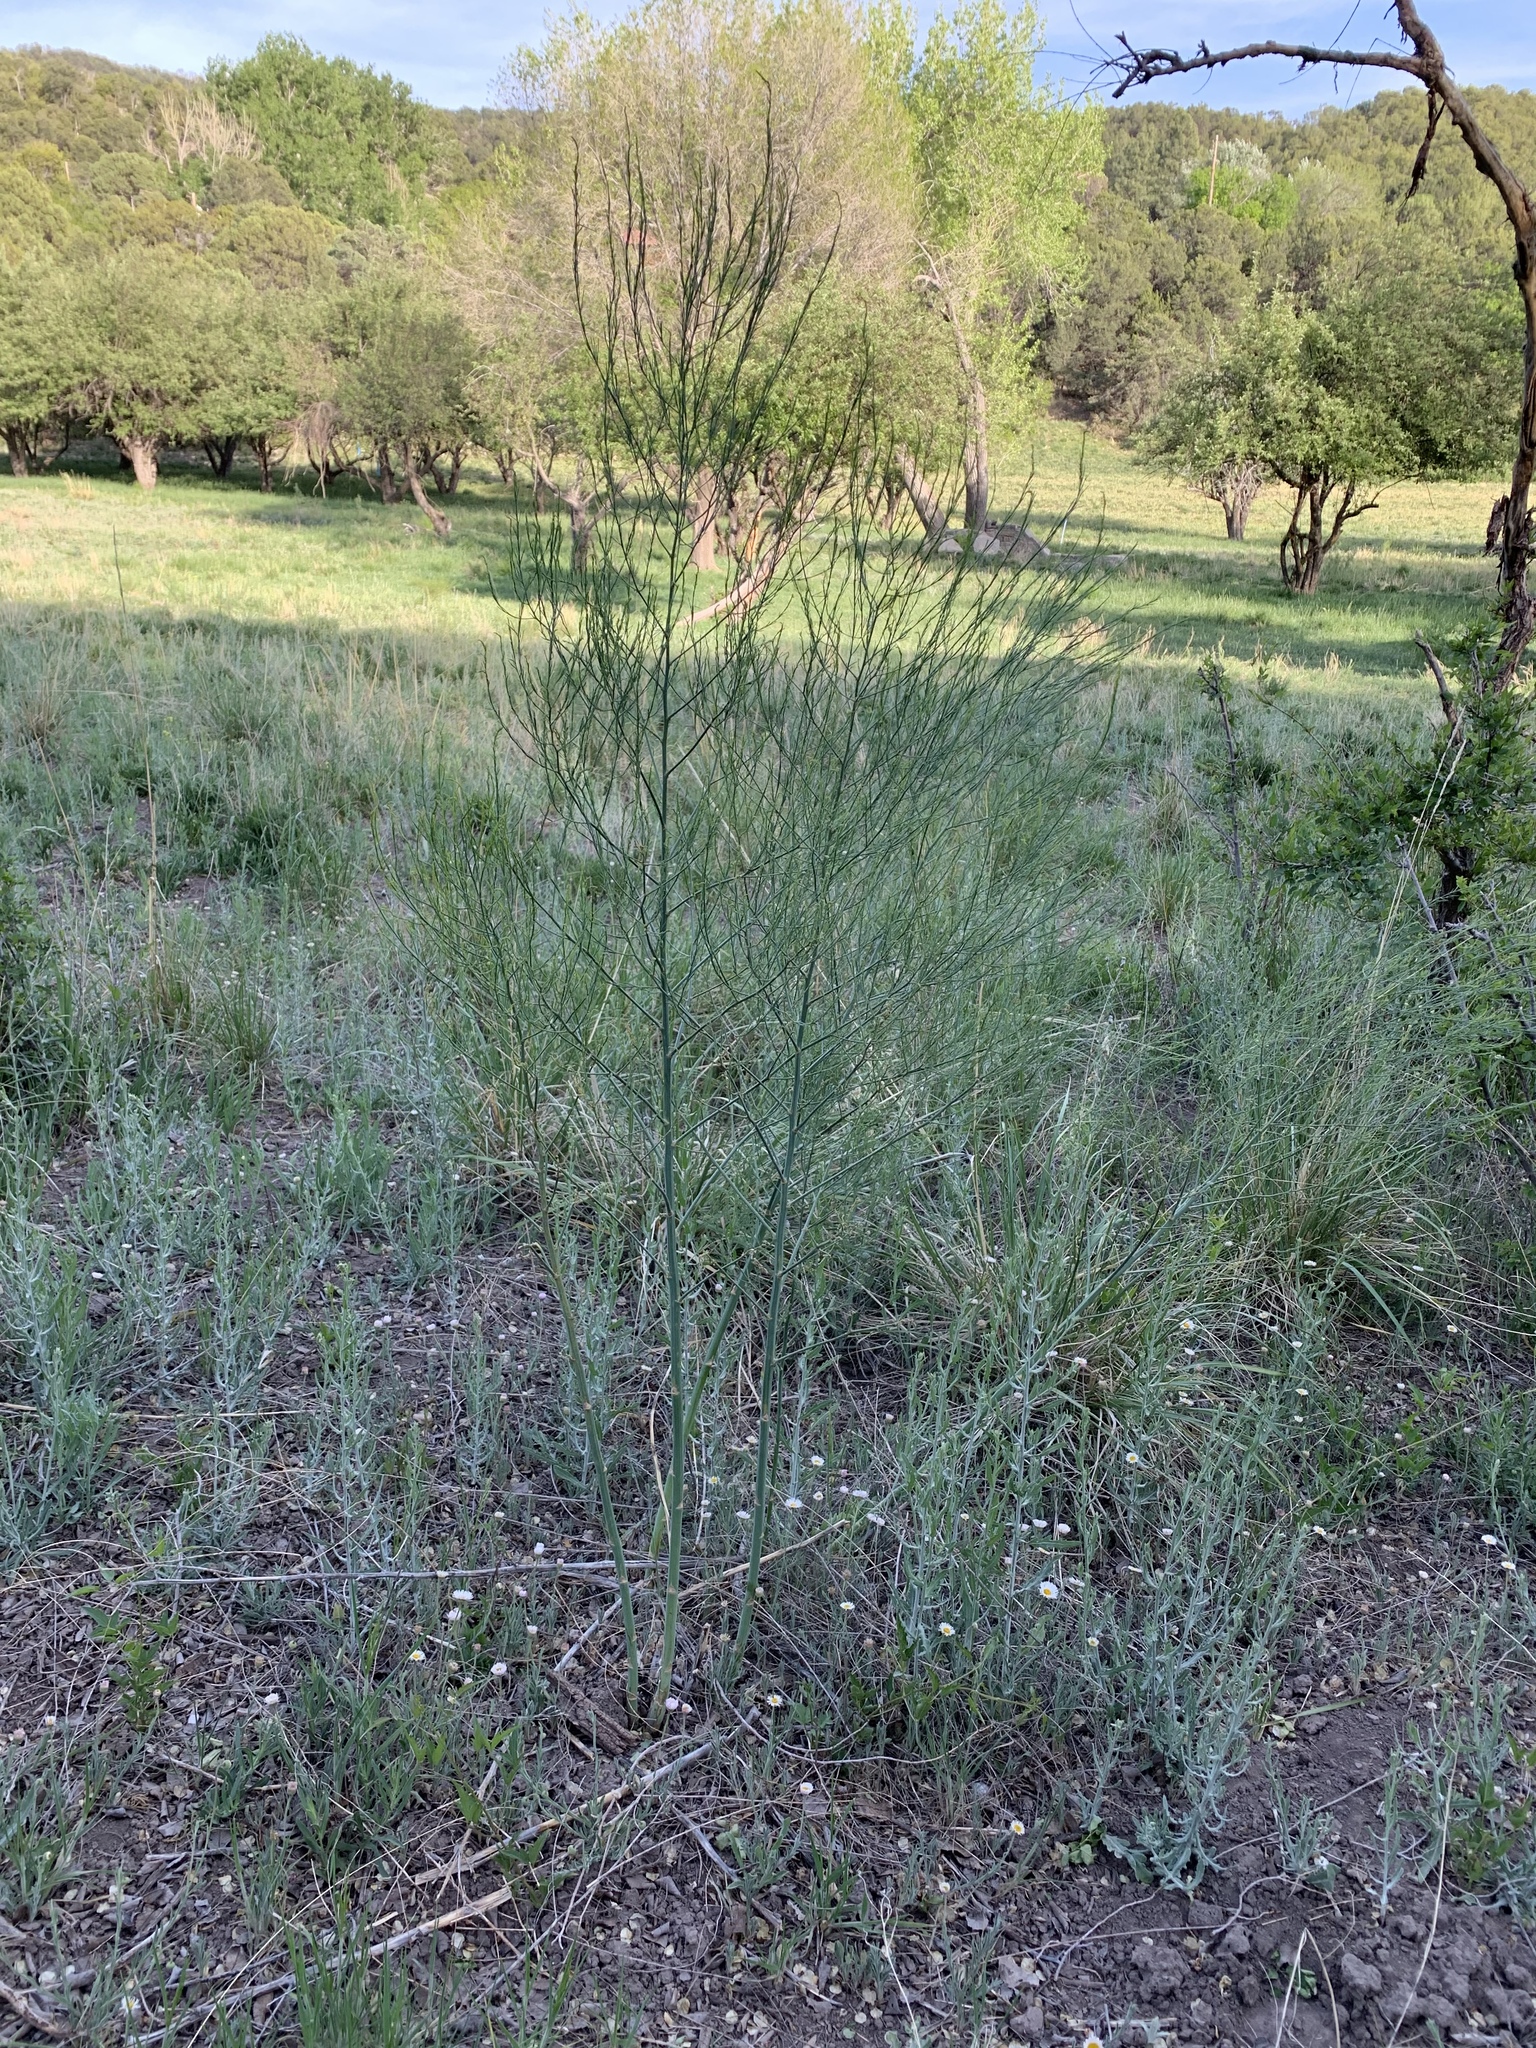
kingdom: Plantae
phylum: Tracheophyta
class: Liliopsida
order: Asparagales
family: Asparagaceae
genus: Asparagus
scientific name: Asparagus officinalis
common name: Garden asparagus
